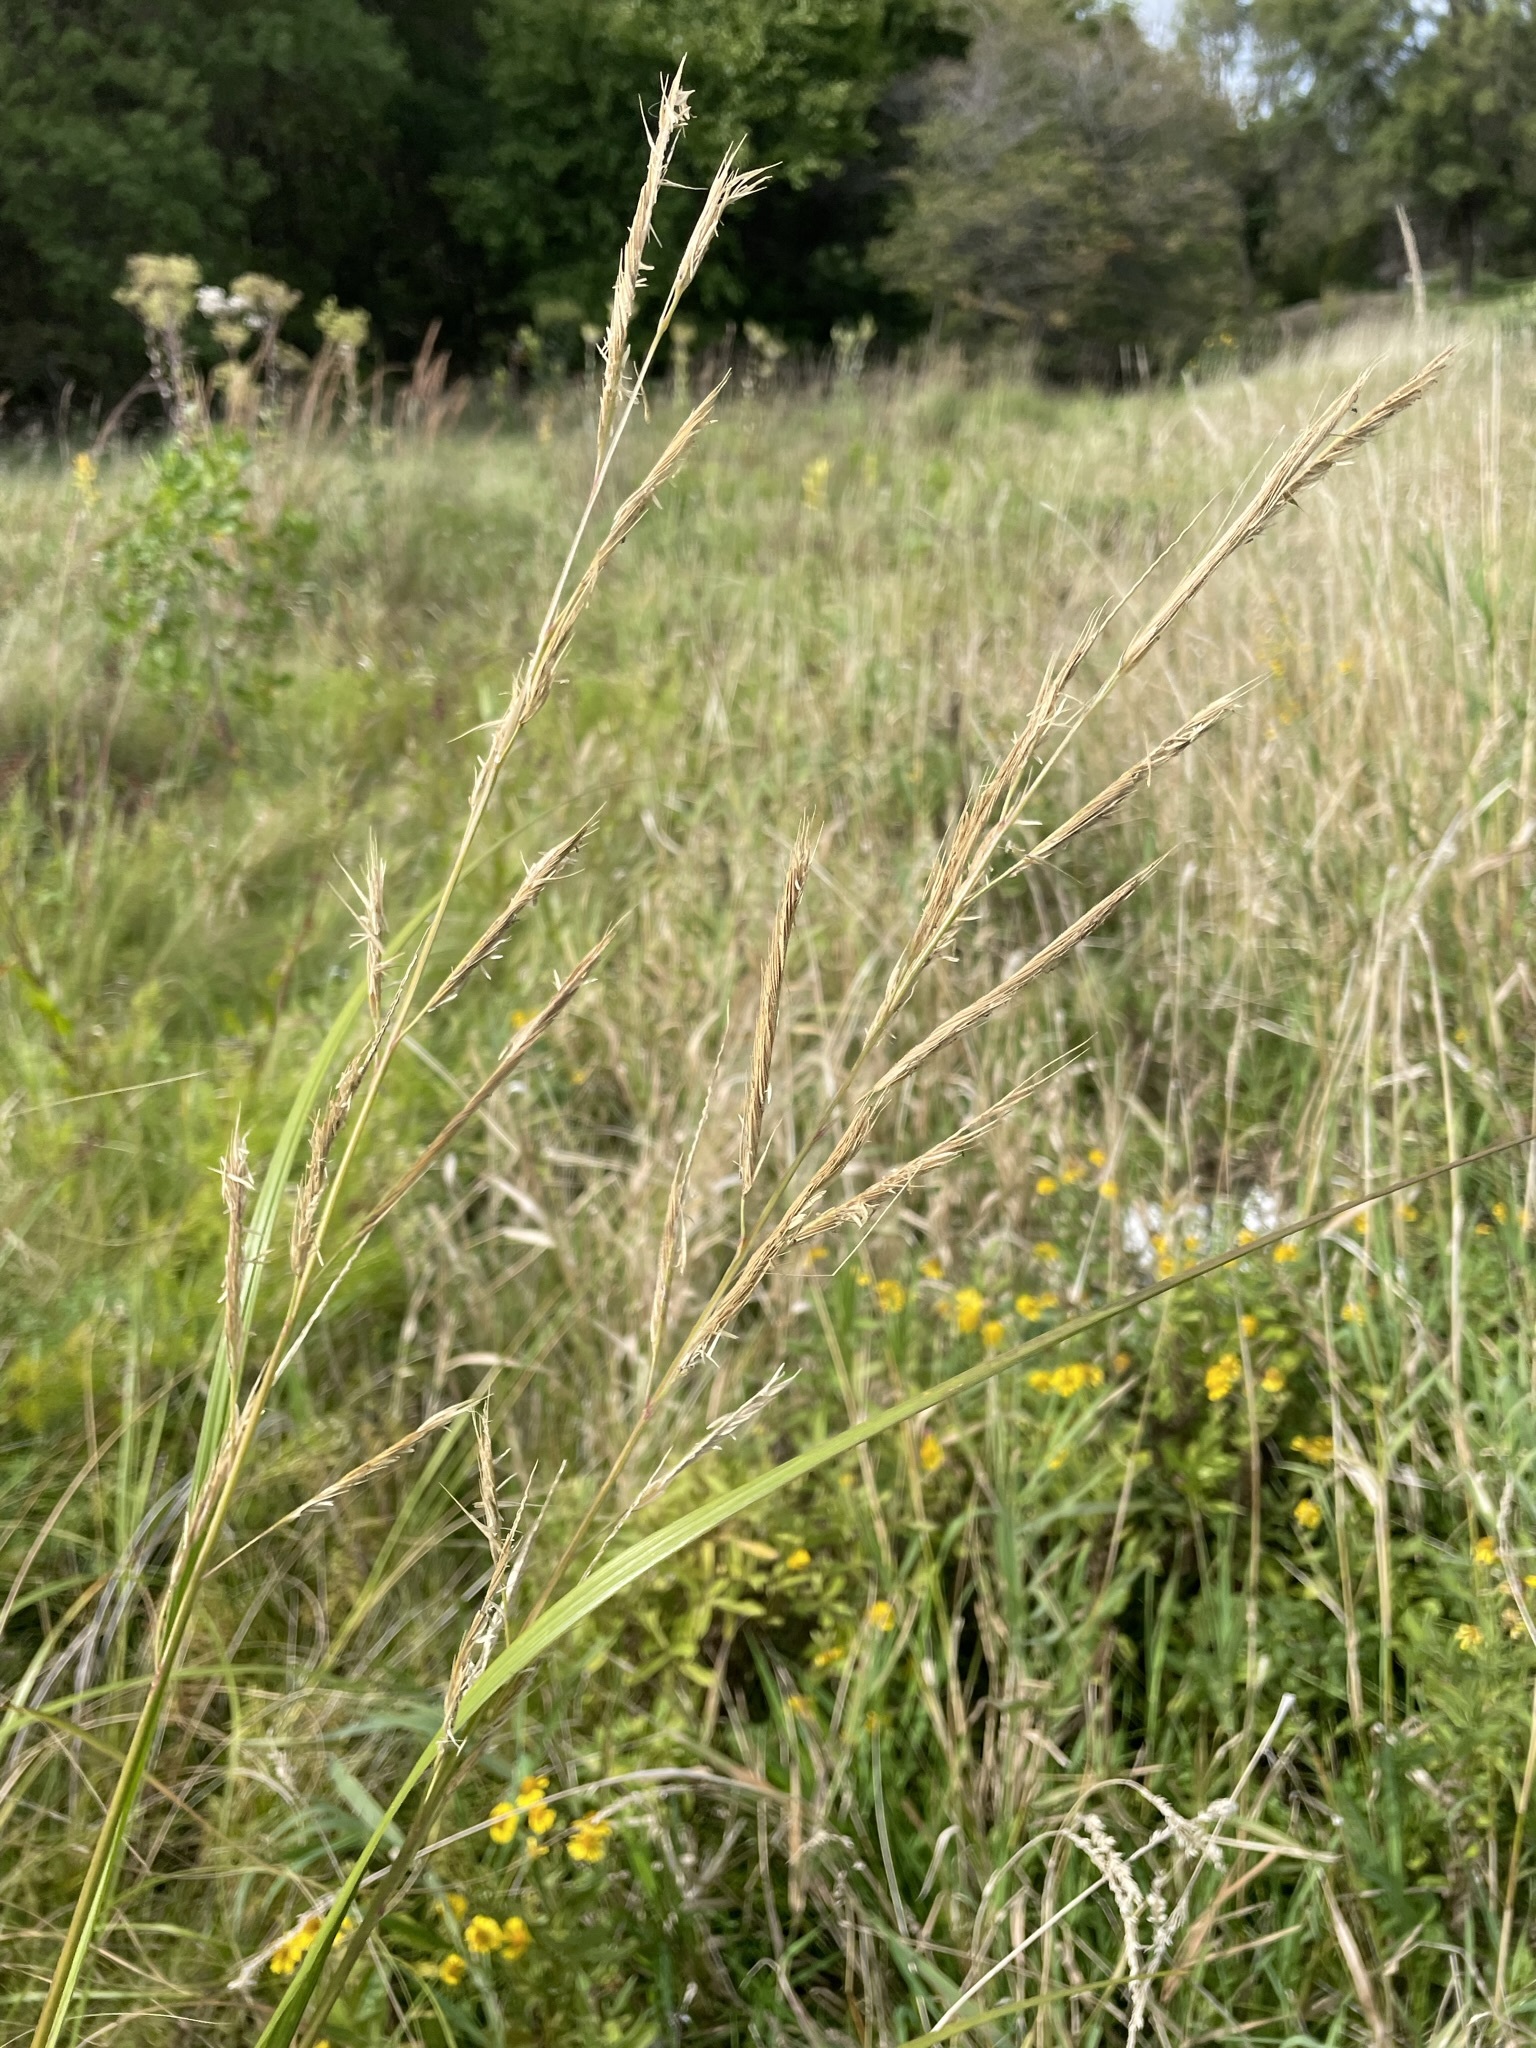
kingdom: Plantae
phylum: Tracheophyta
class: Liliopsida
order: Poales
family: Poaceae
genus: Sporobolus
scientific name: Sporobolus michauxianus
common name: Freshwater cordgrass
